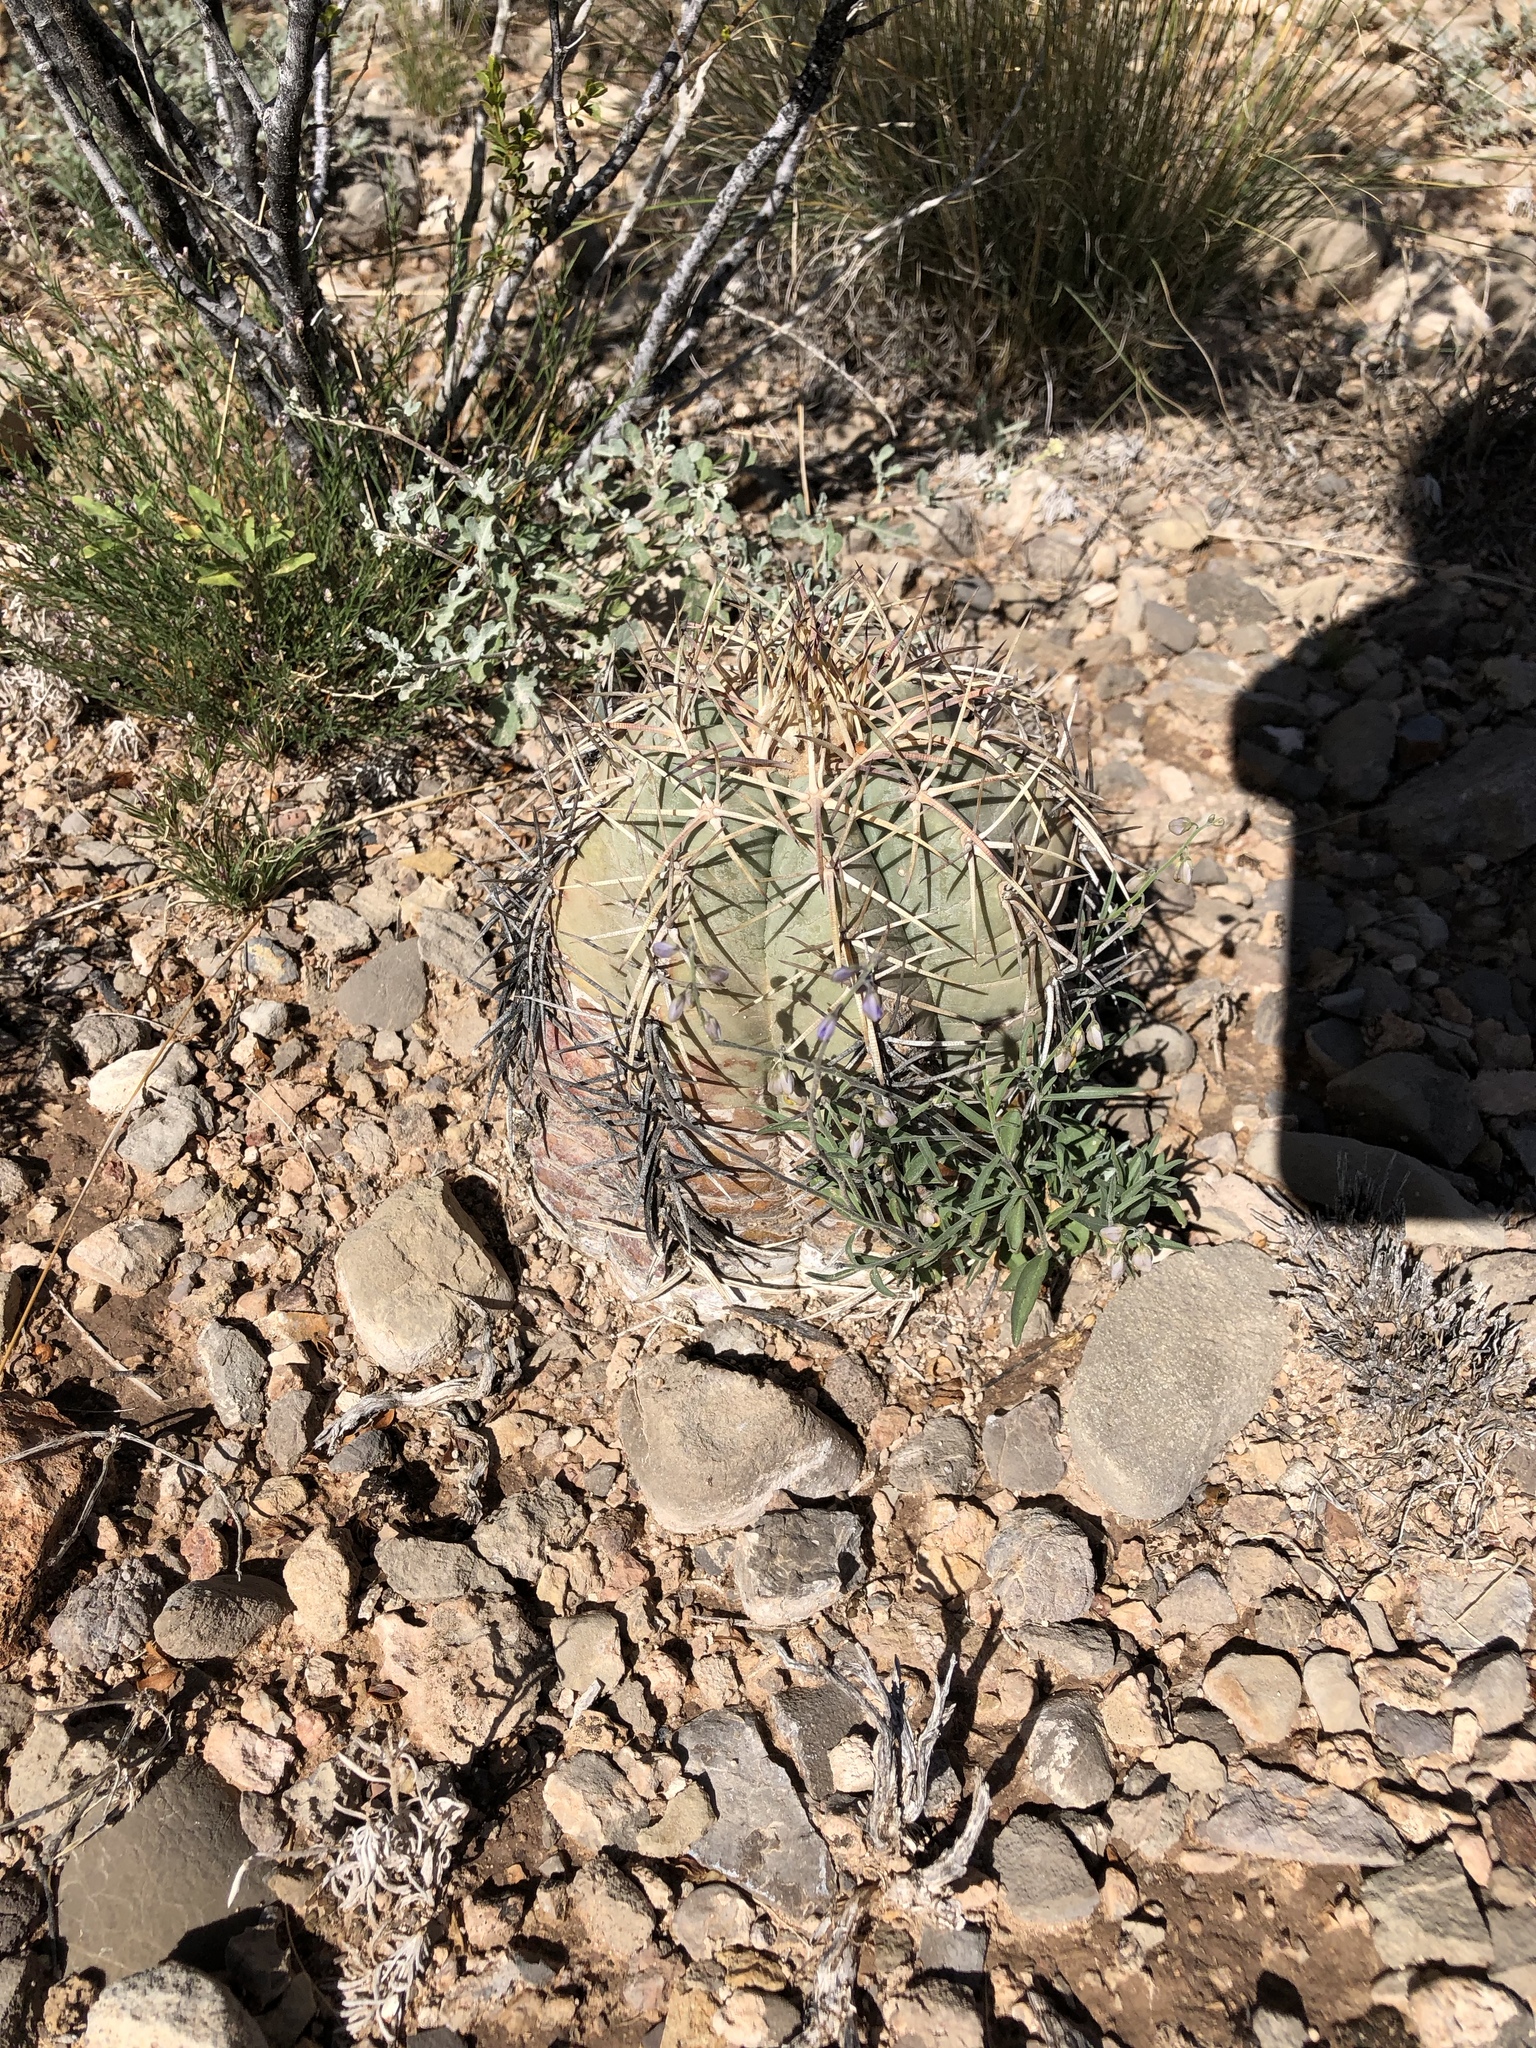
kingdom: Plantae
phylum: Tracheophyta
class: Magnoliopsida
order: Caryophyllales
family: Cactaceae
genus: Echinocactus
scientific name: Echinocactus horizonthalonius
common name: Devilshead
